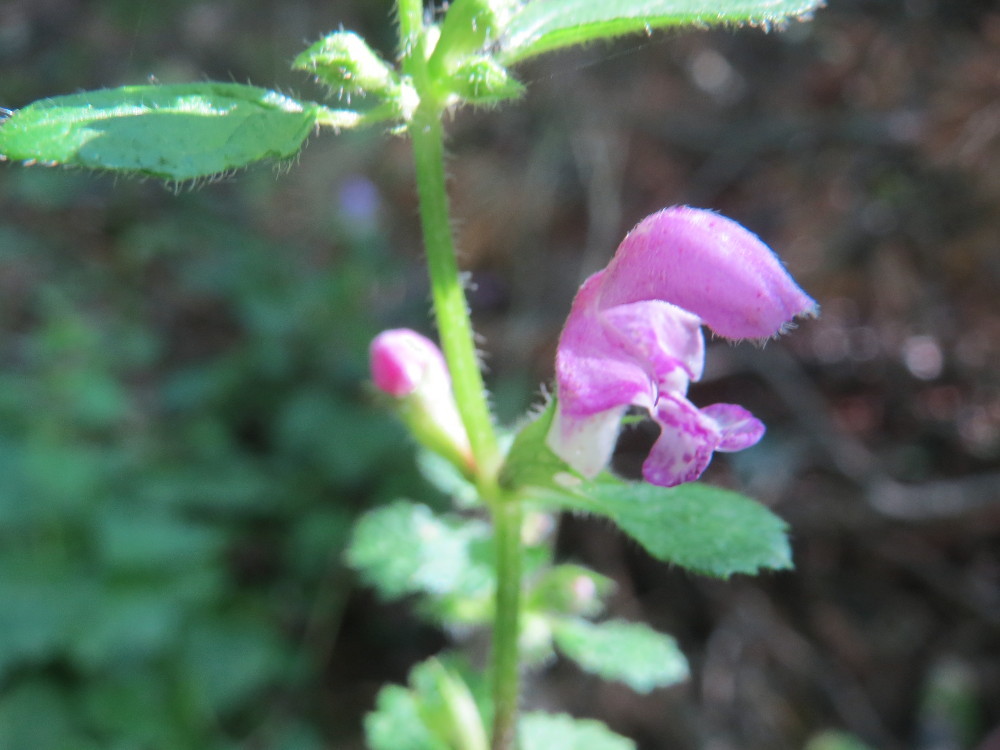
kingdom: Plantae
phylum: Tracheophyta
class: Magnoliopsida
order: Lamiales
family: Lamiaceae
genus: Lamium
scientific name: Lamium maculatum
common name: Spotted dead-nettle
